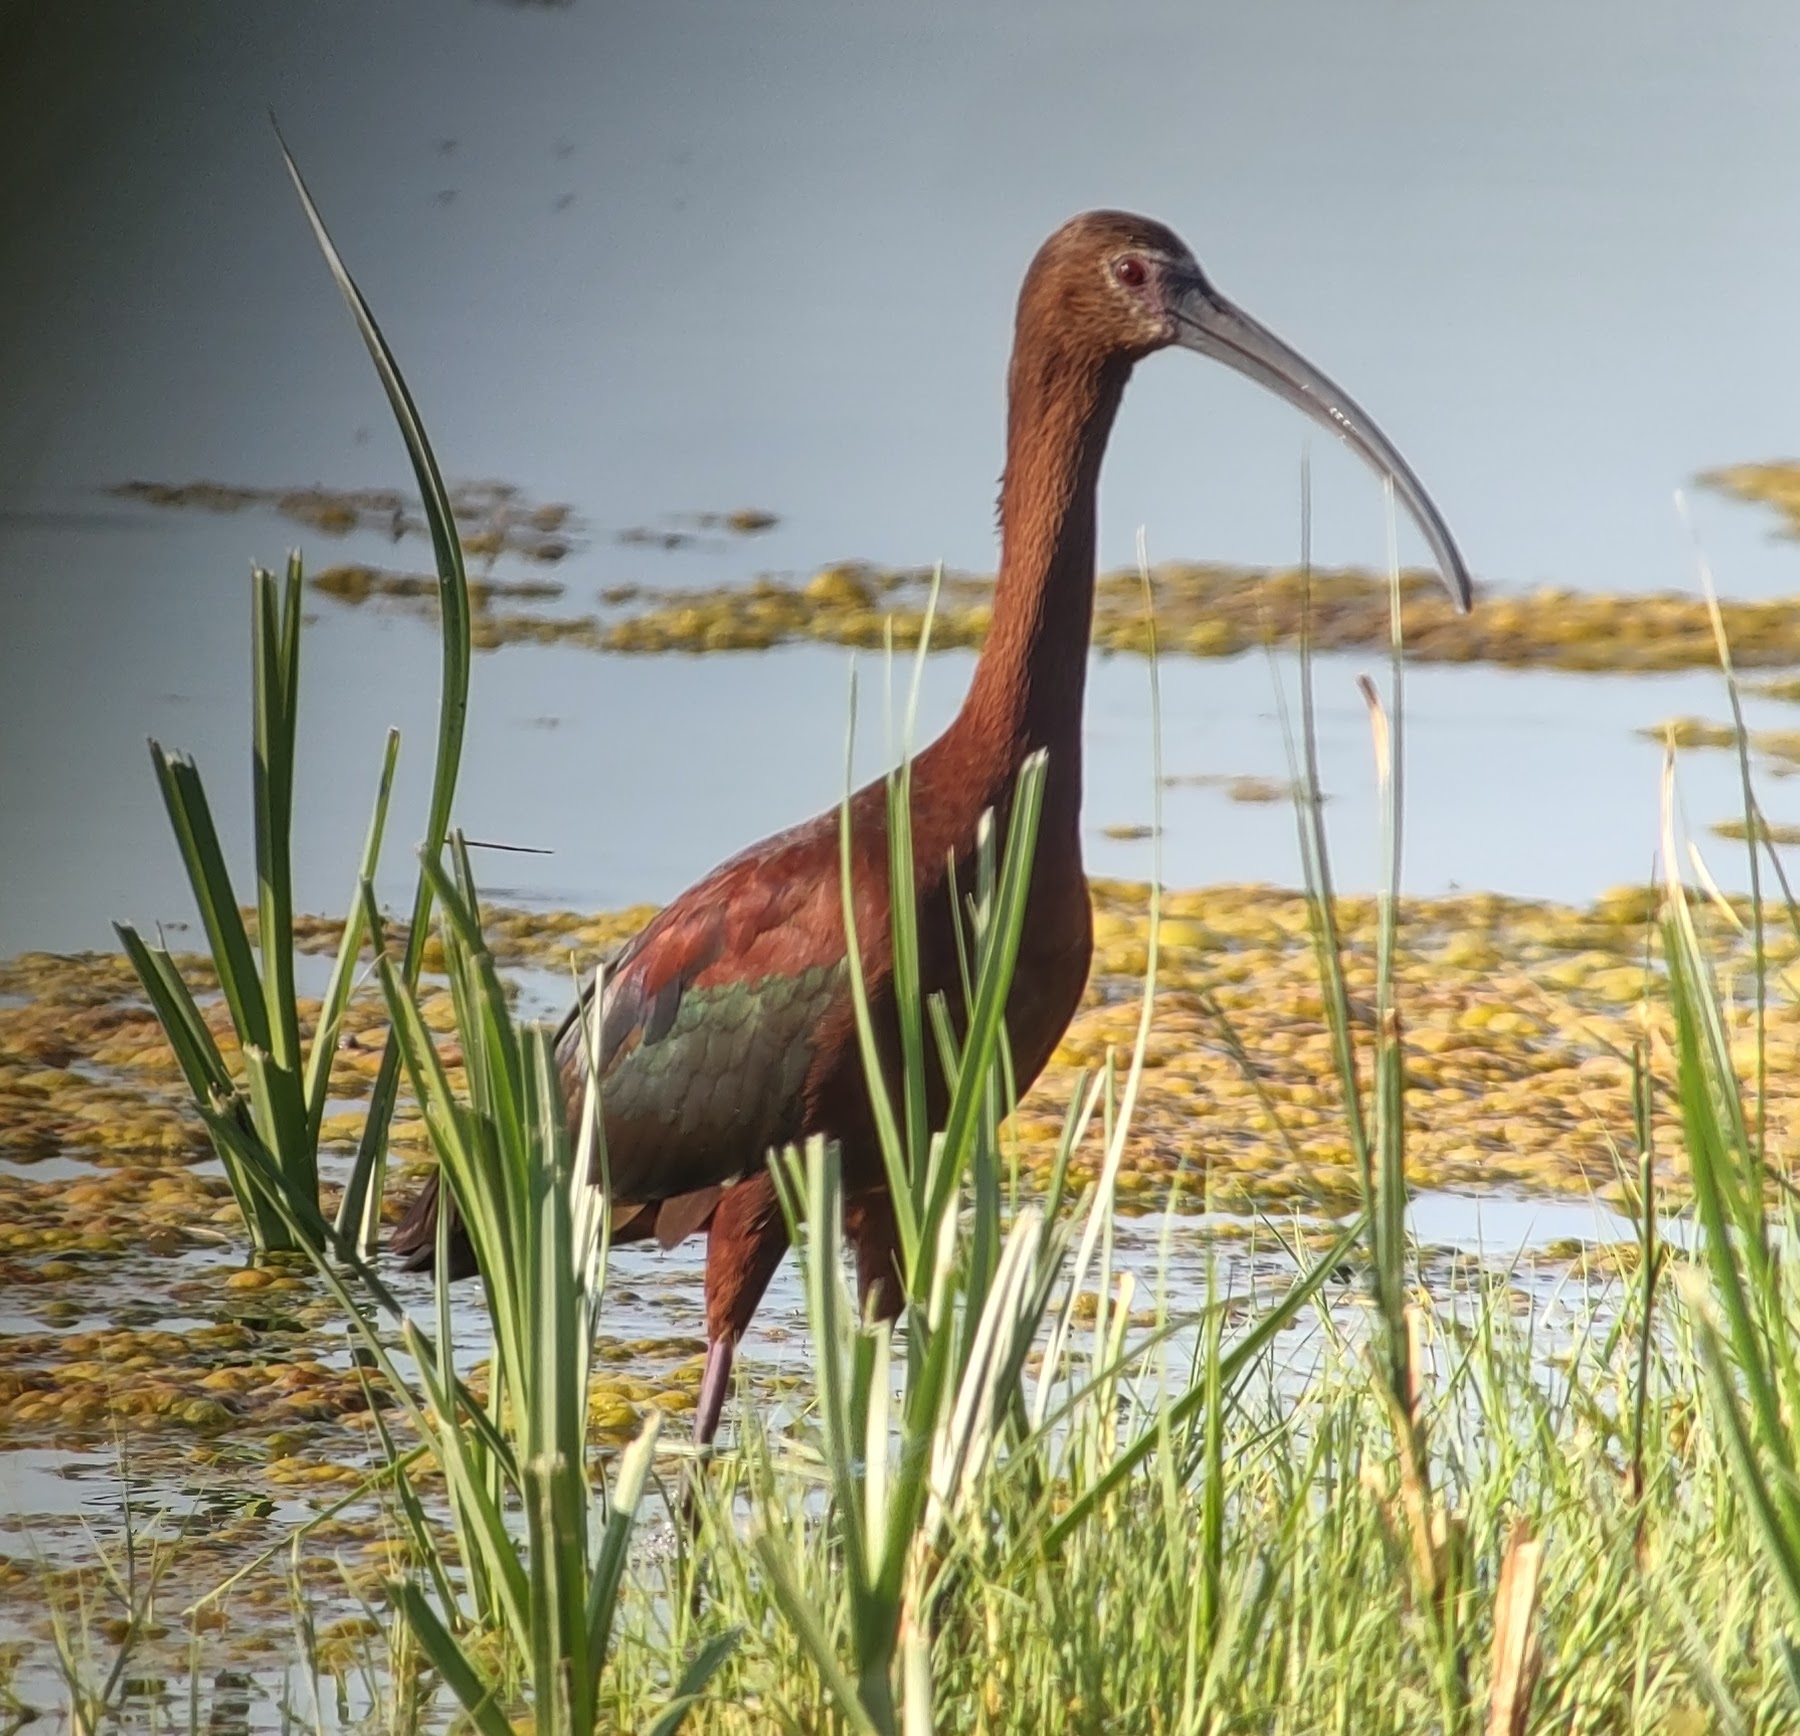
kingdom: Animalia
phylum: Chordata
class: Aves
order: Pelecaniformes
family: Threskiornithidae
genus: Plegadis
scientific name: Plegadis chihi
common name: White-faced ibis
